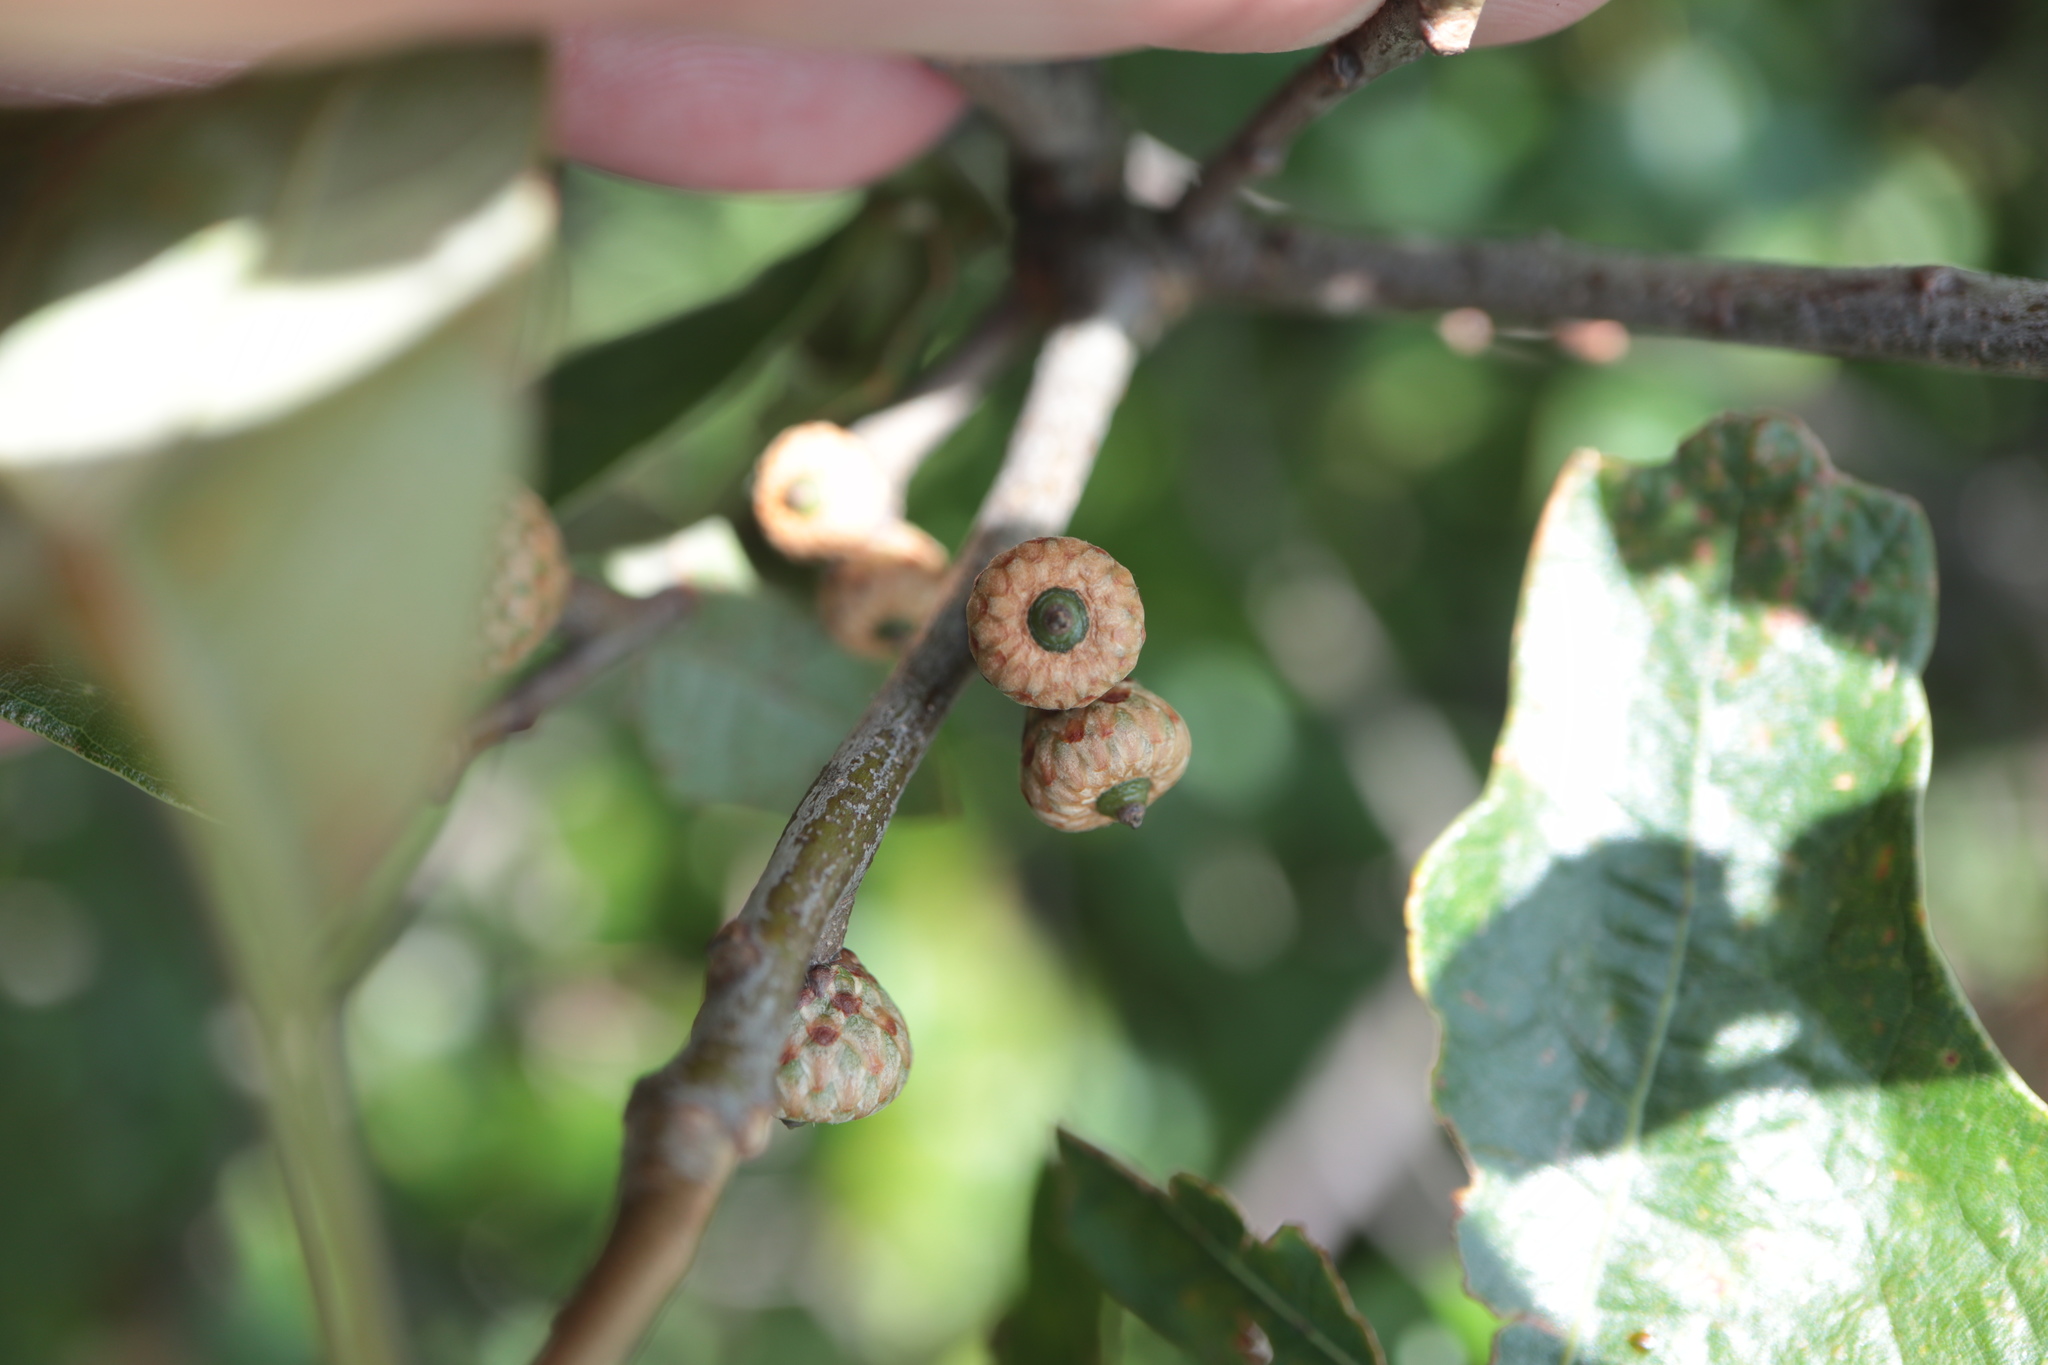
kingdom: Plantae
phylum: Tracheophyta
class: Magnoliopsida
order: Fagales
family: Fagaceae
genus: Quercus
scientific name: Quercus ilicifolia
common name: Bear oak
